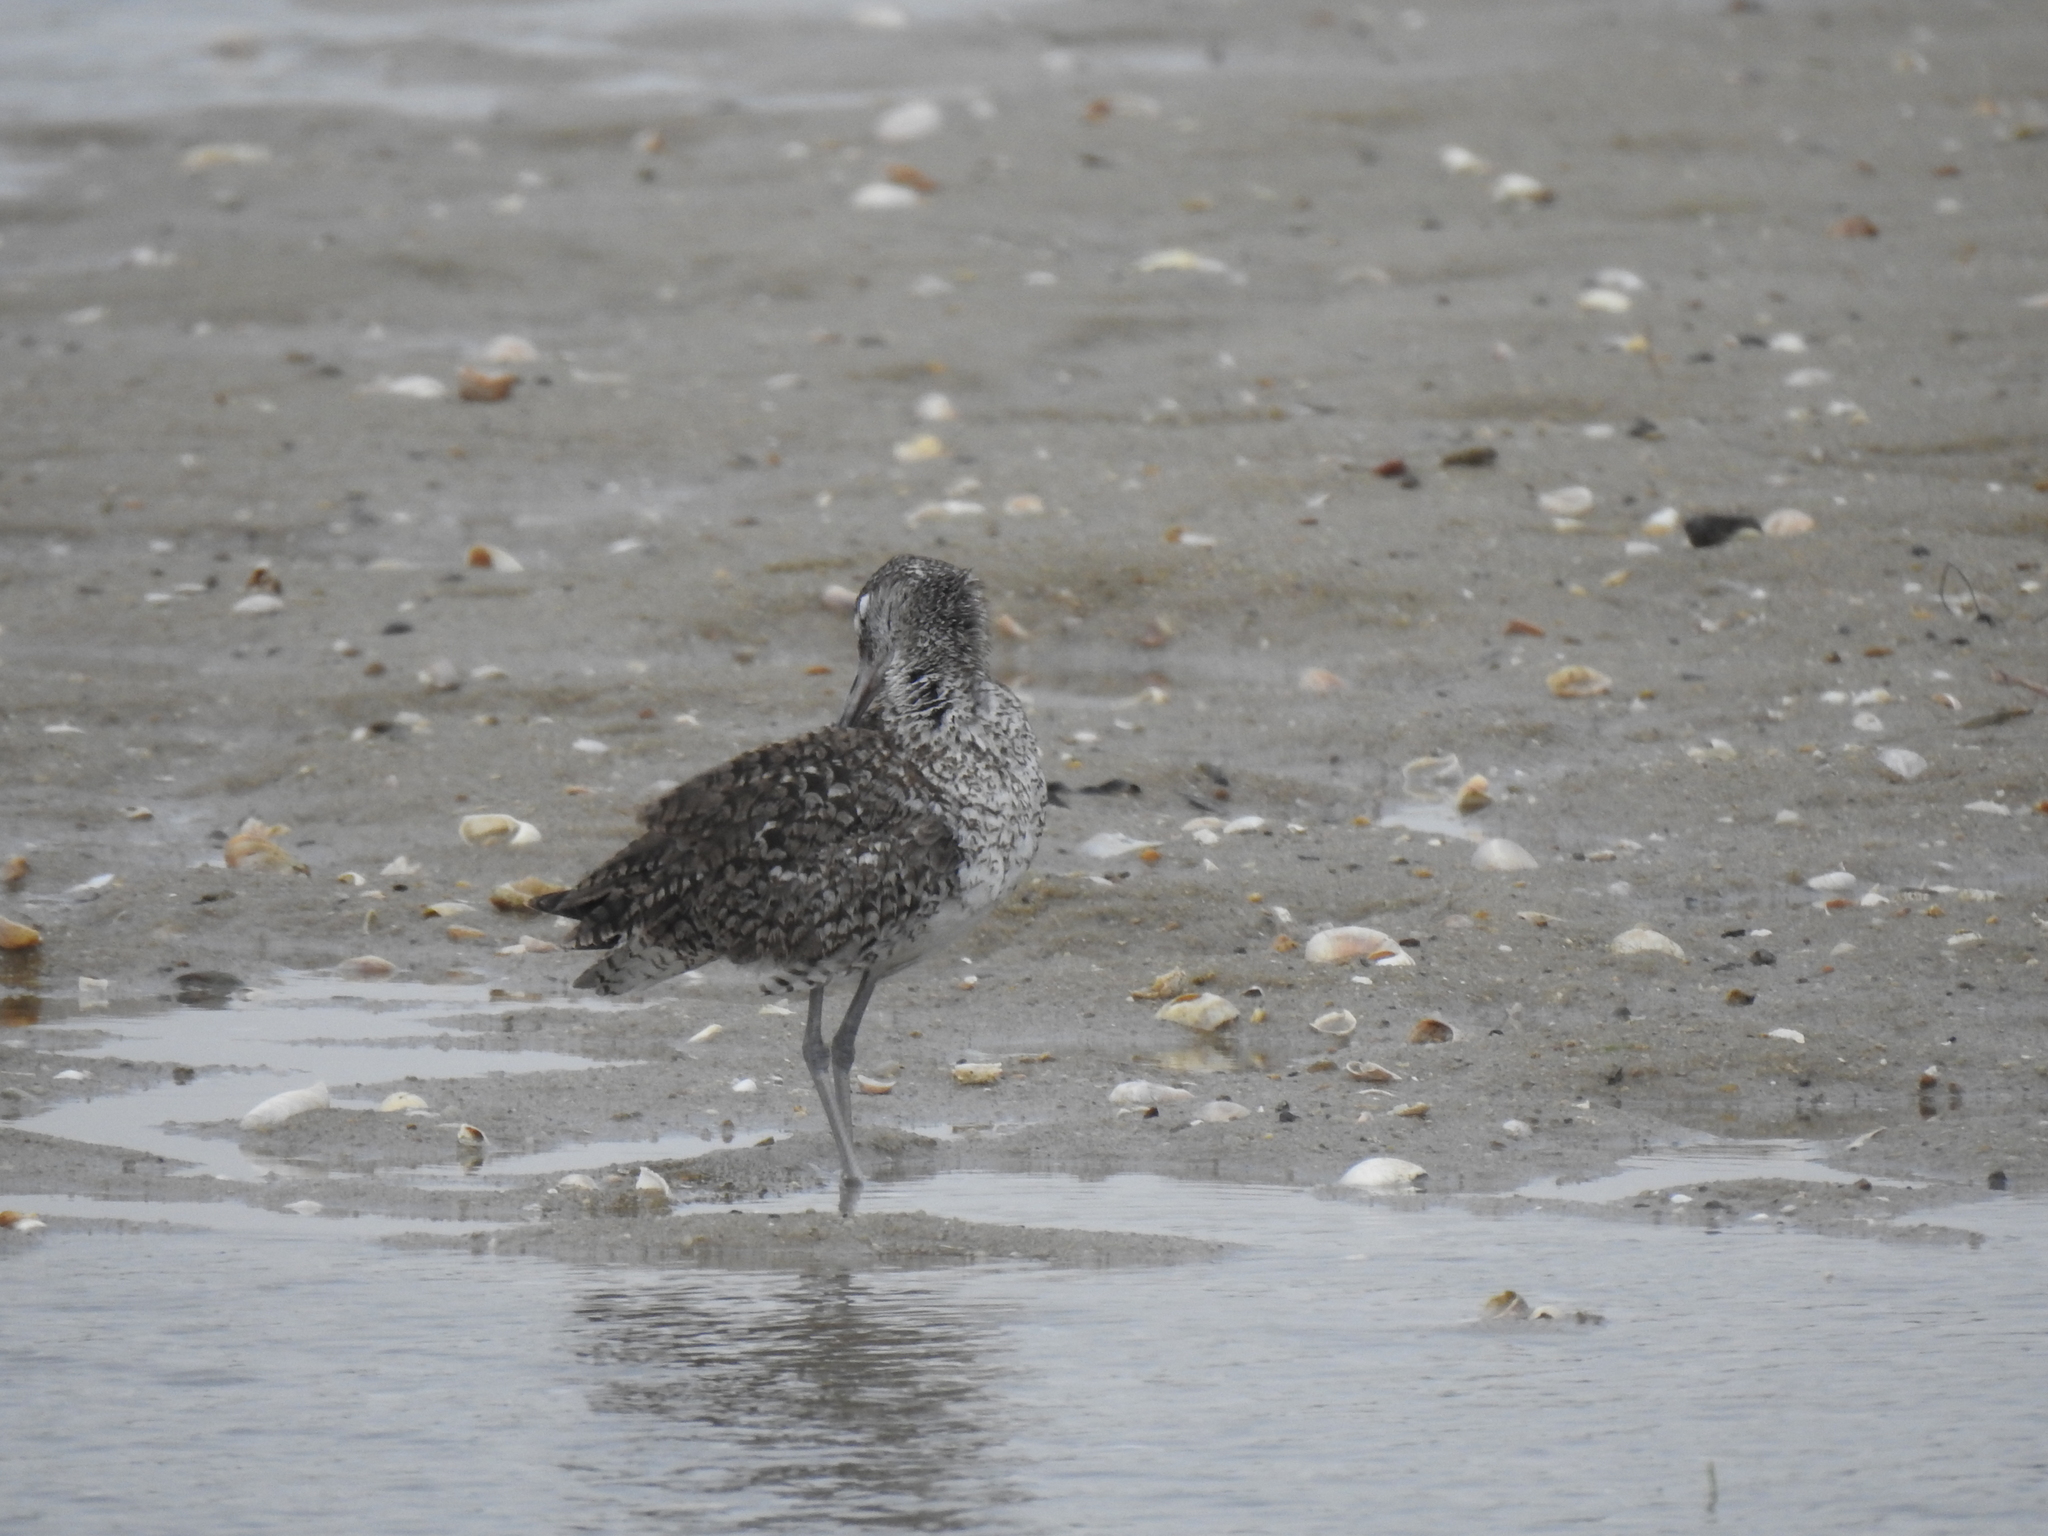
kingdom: Animalia
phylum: Chordata
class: Aves
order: Charadriiformes
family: Scolopacidae
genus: Tringa
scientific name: Tringa semipalmata
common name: Willet
